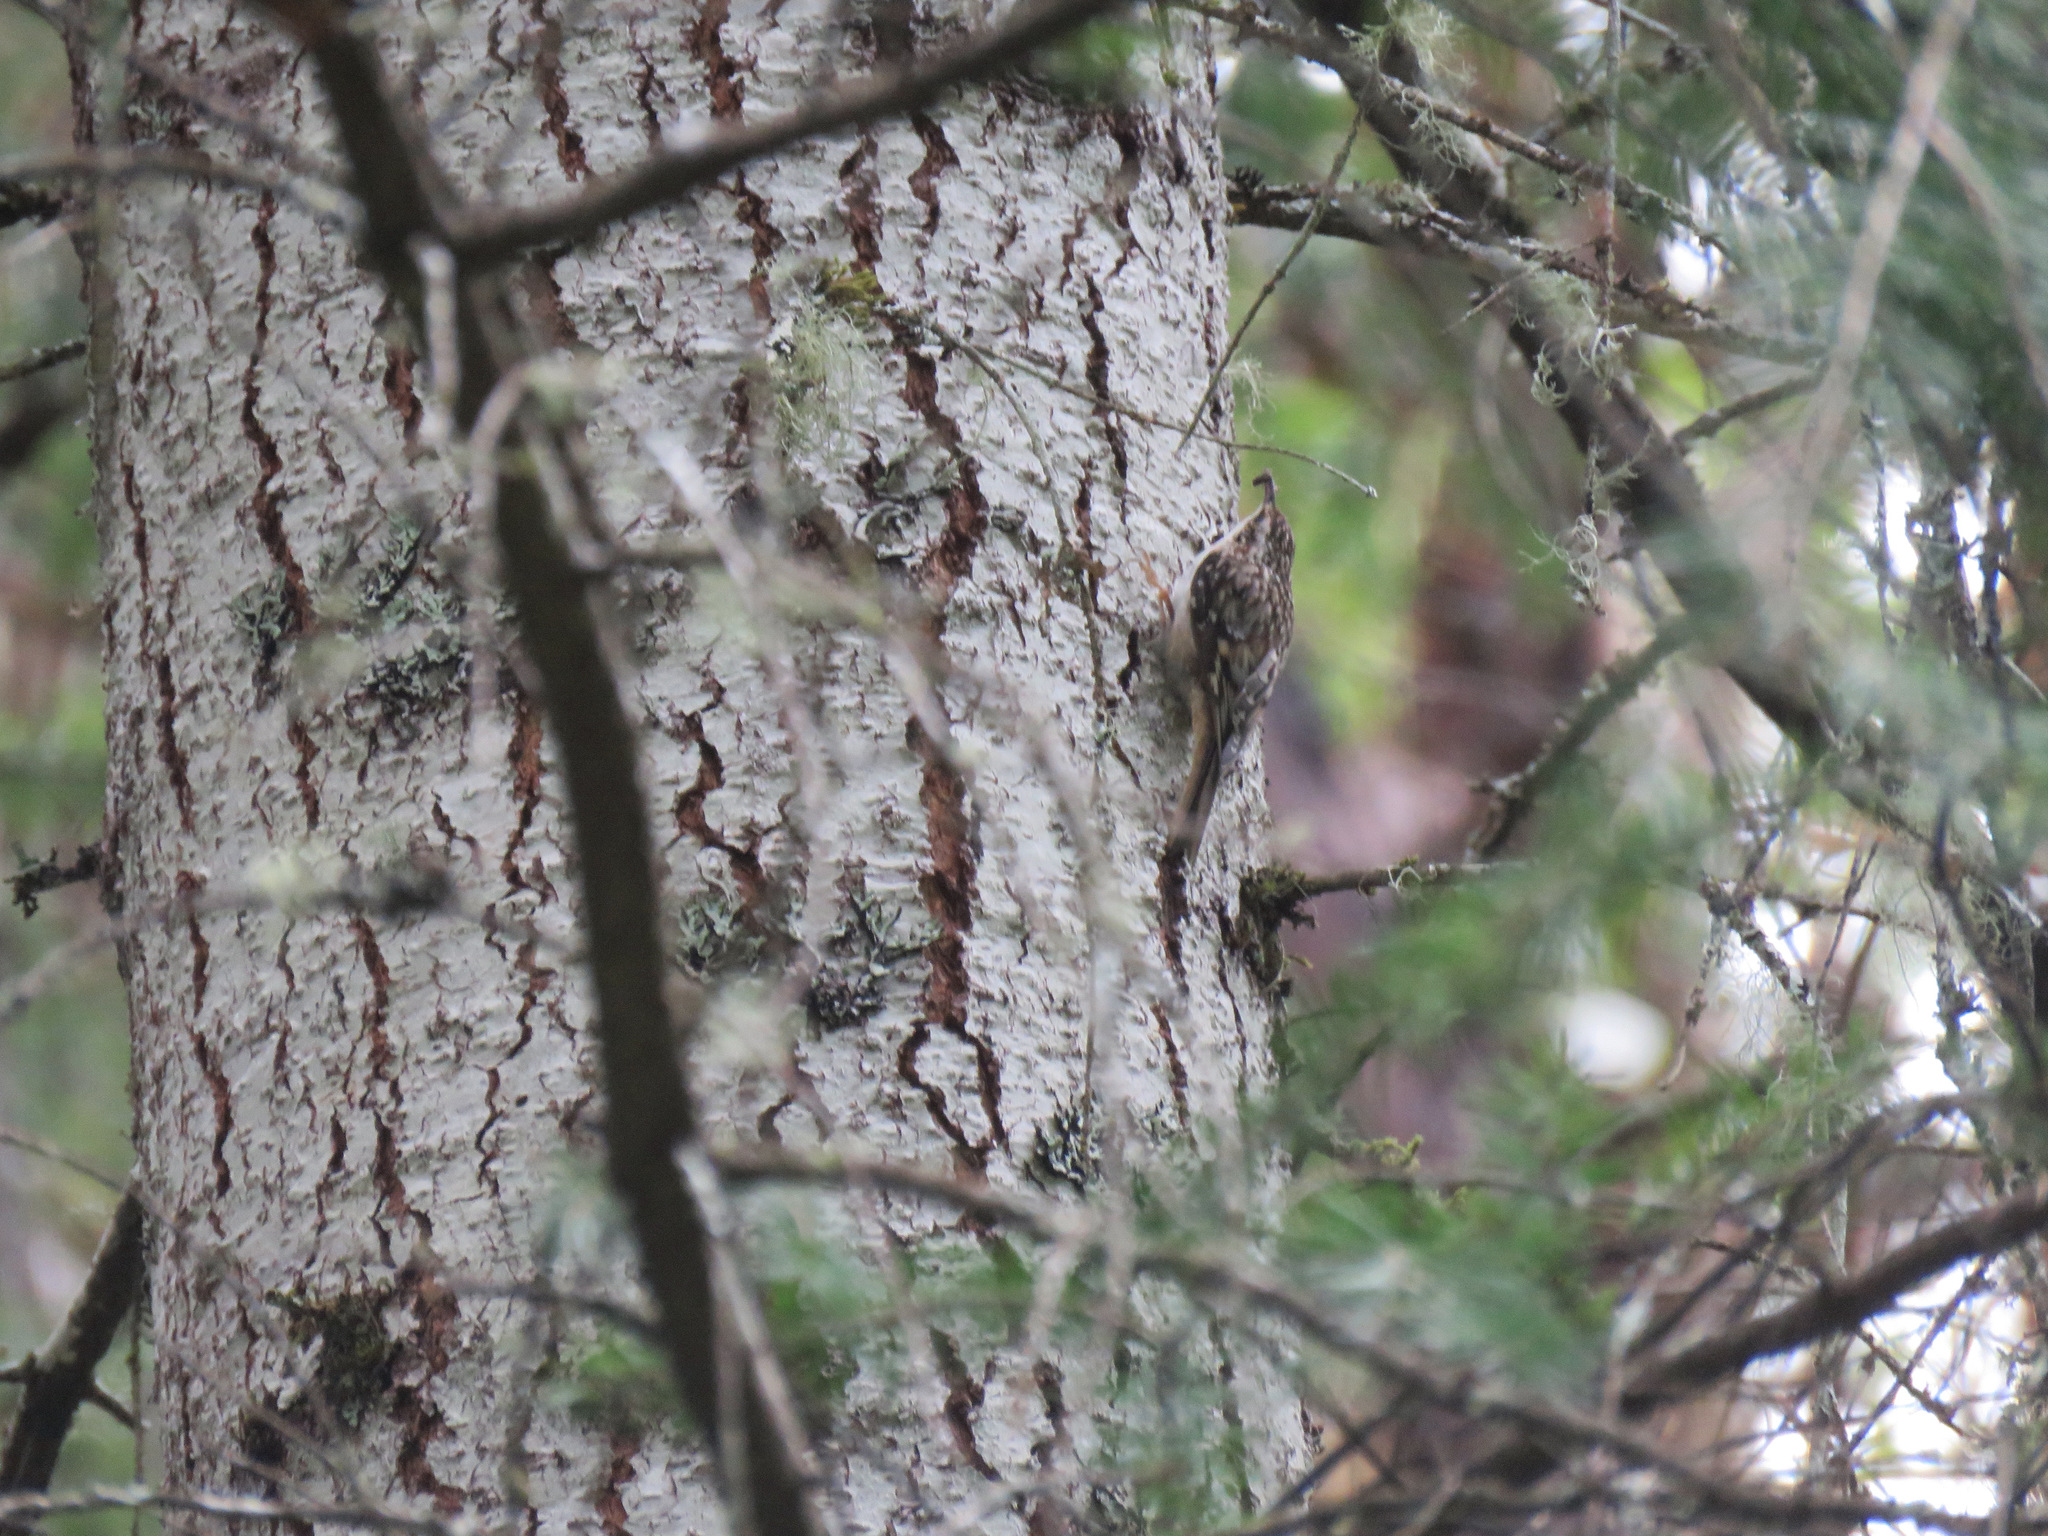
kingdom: Animalia
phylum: Chordata
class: Aves
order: Passeriformes
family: Certhiidae
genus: Certhia
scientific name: Certhia americana
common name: Brown creeper
